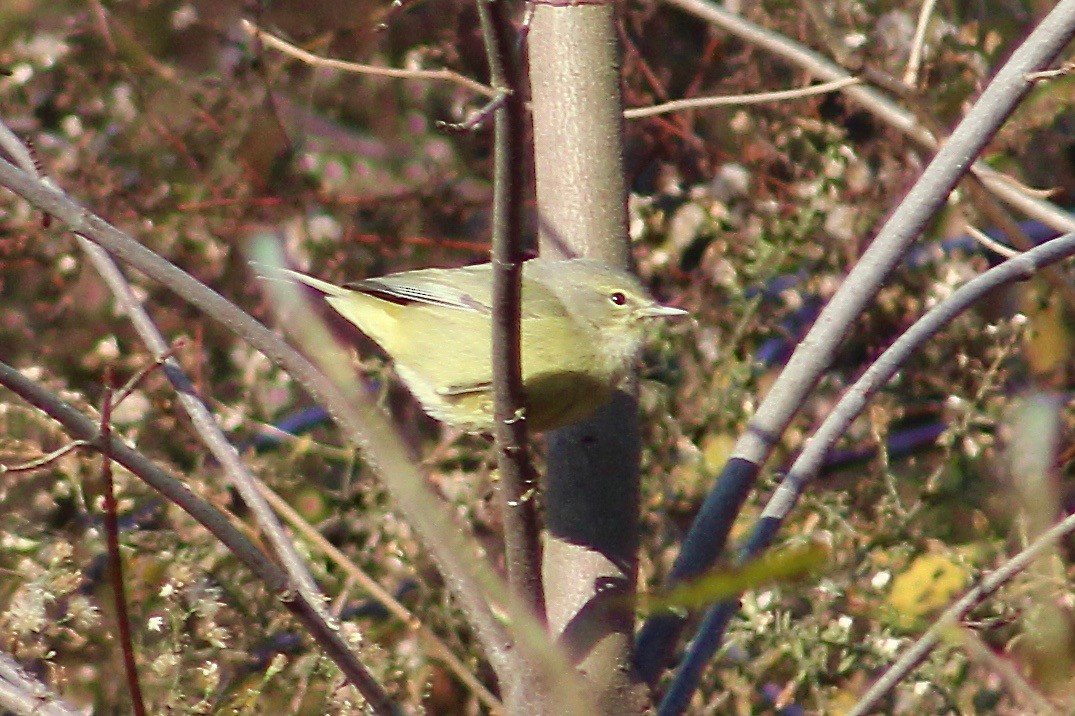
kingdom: Animalia
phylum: Chordata
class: Aves
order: Passeriformes
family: Parulidae
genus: Leiothlypis
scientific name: Leiothlypis celata
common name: Orange-crowned warbler
